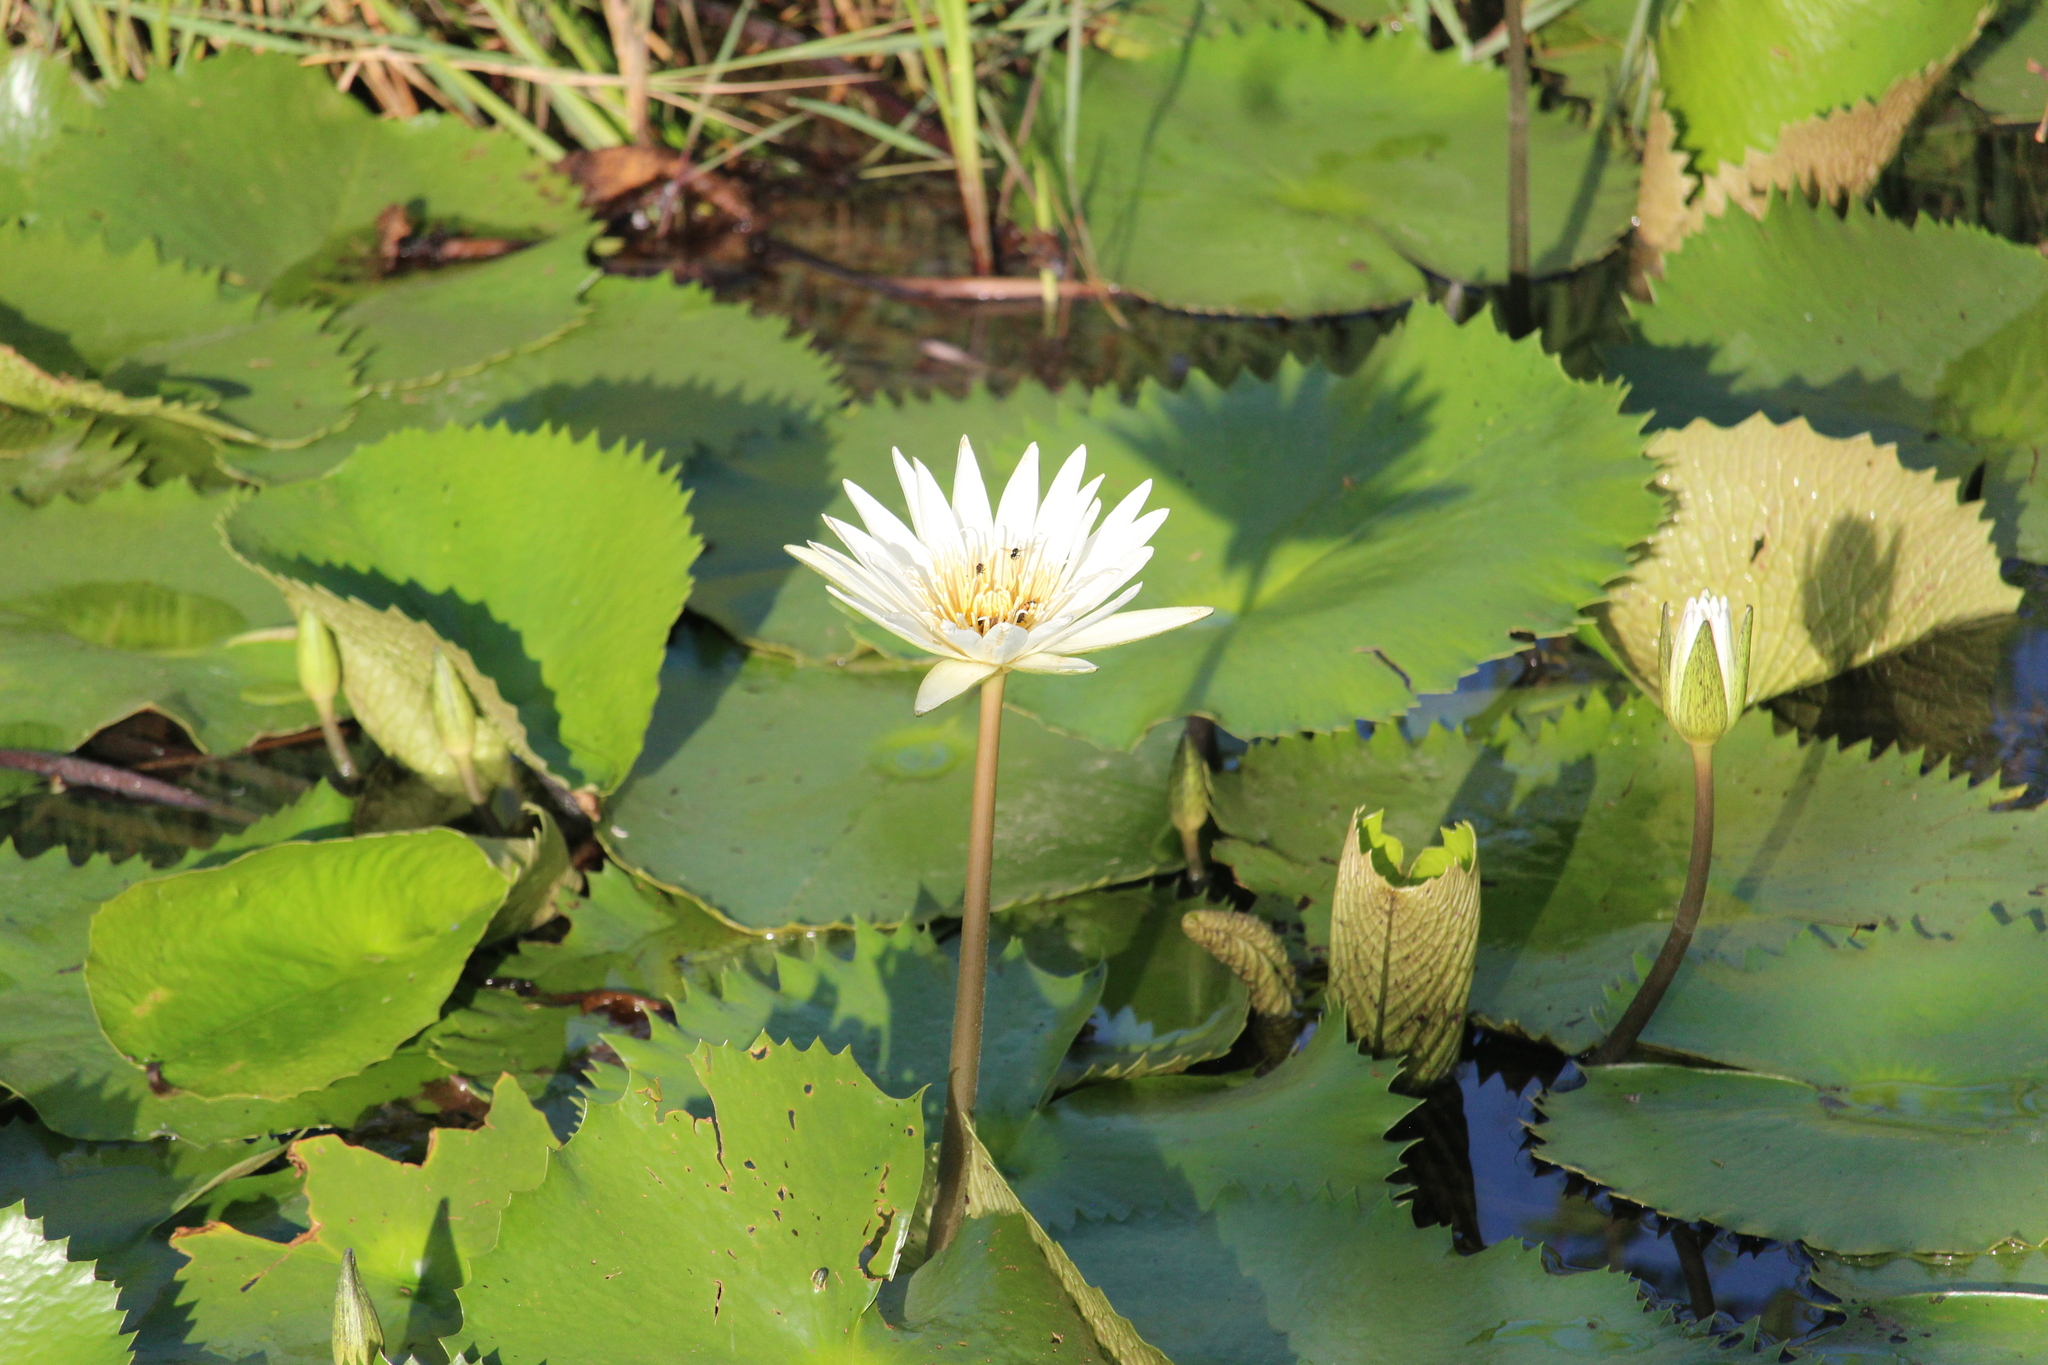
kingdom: Plantae
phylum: Tracheophyta
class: Magnoliopsida
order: Nymphaeales
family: Nymphaeaceae
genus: Nymphaea
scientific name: Nymphaea ampla
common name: Dotleaf waterlily
